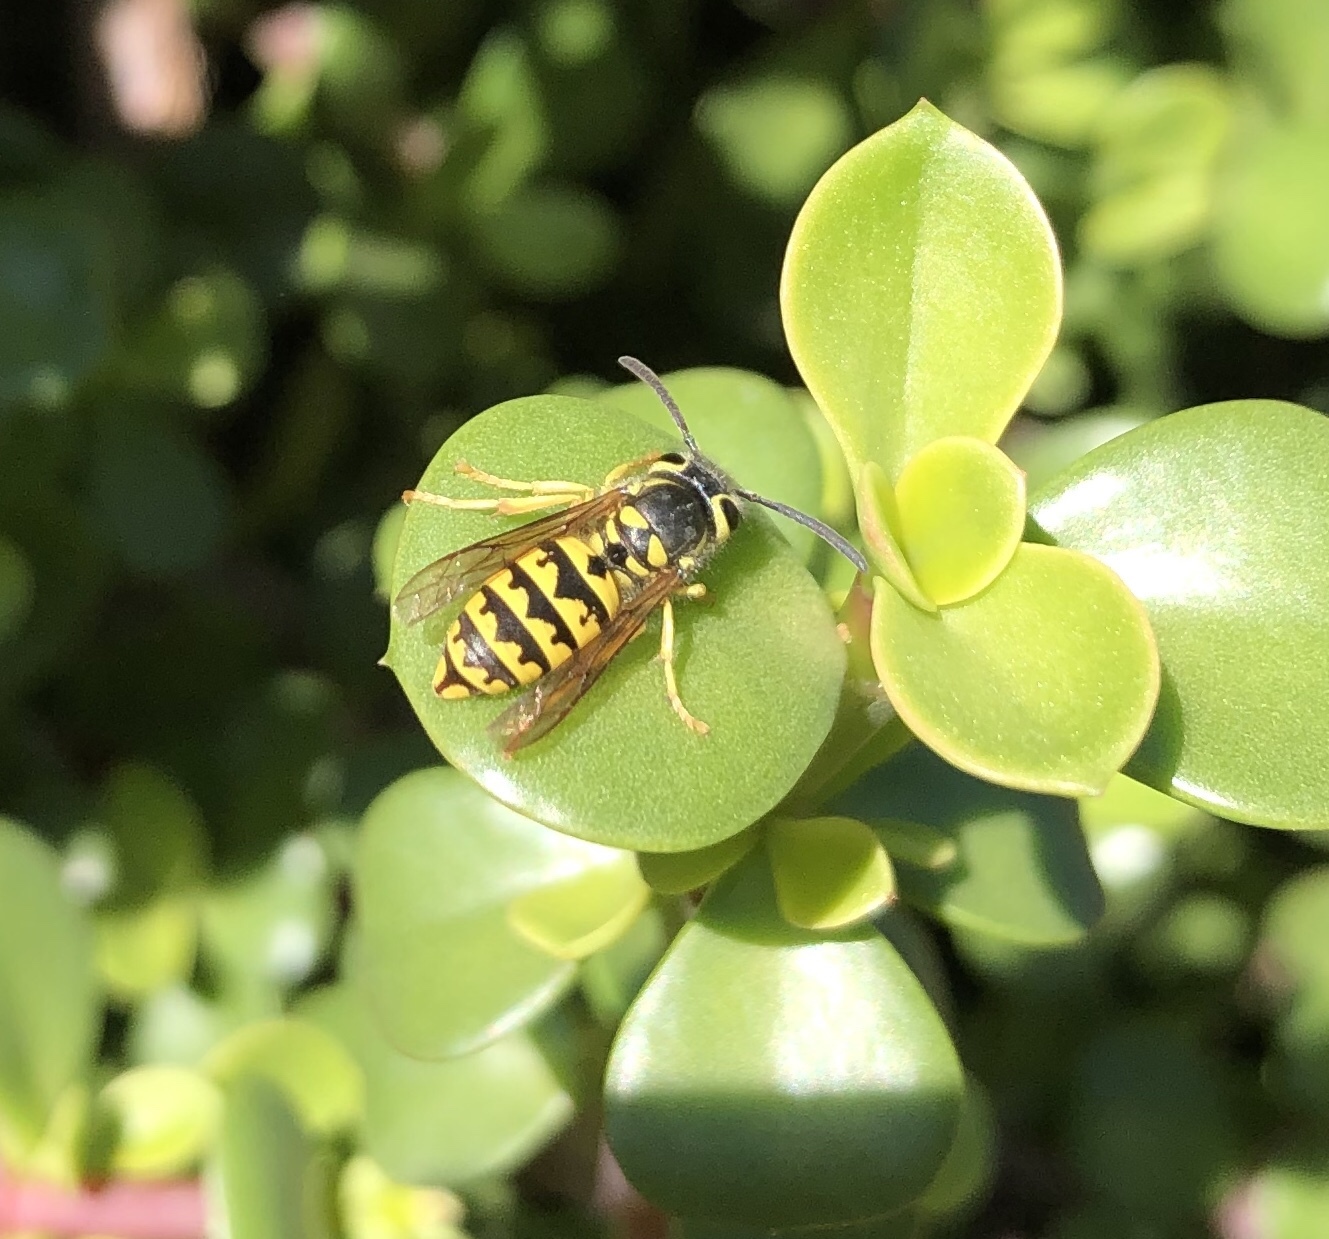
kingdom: Animalia
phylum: Arthropoda
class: Insecta
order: Hymenoptera
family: Vespidae
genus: Vespula
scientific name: Vespula pensylvanica
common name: Western yellowjacket
